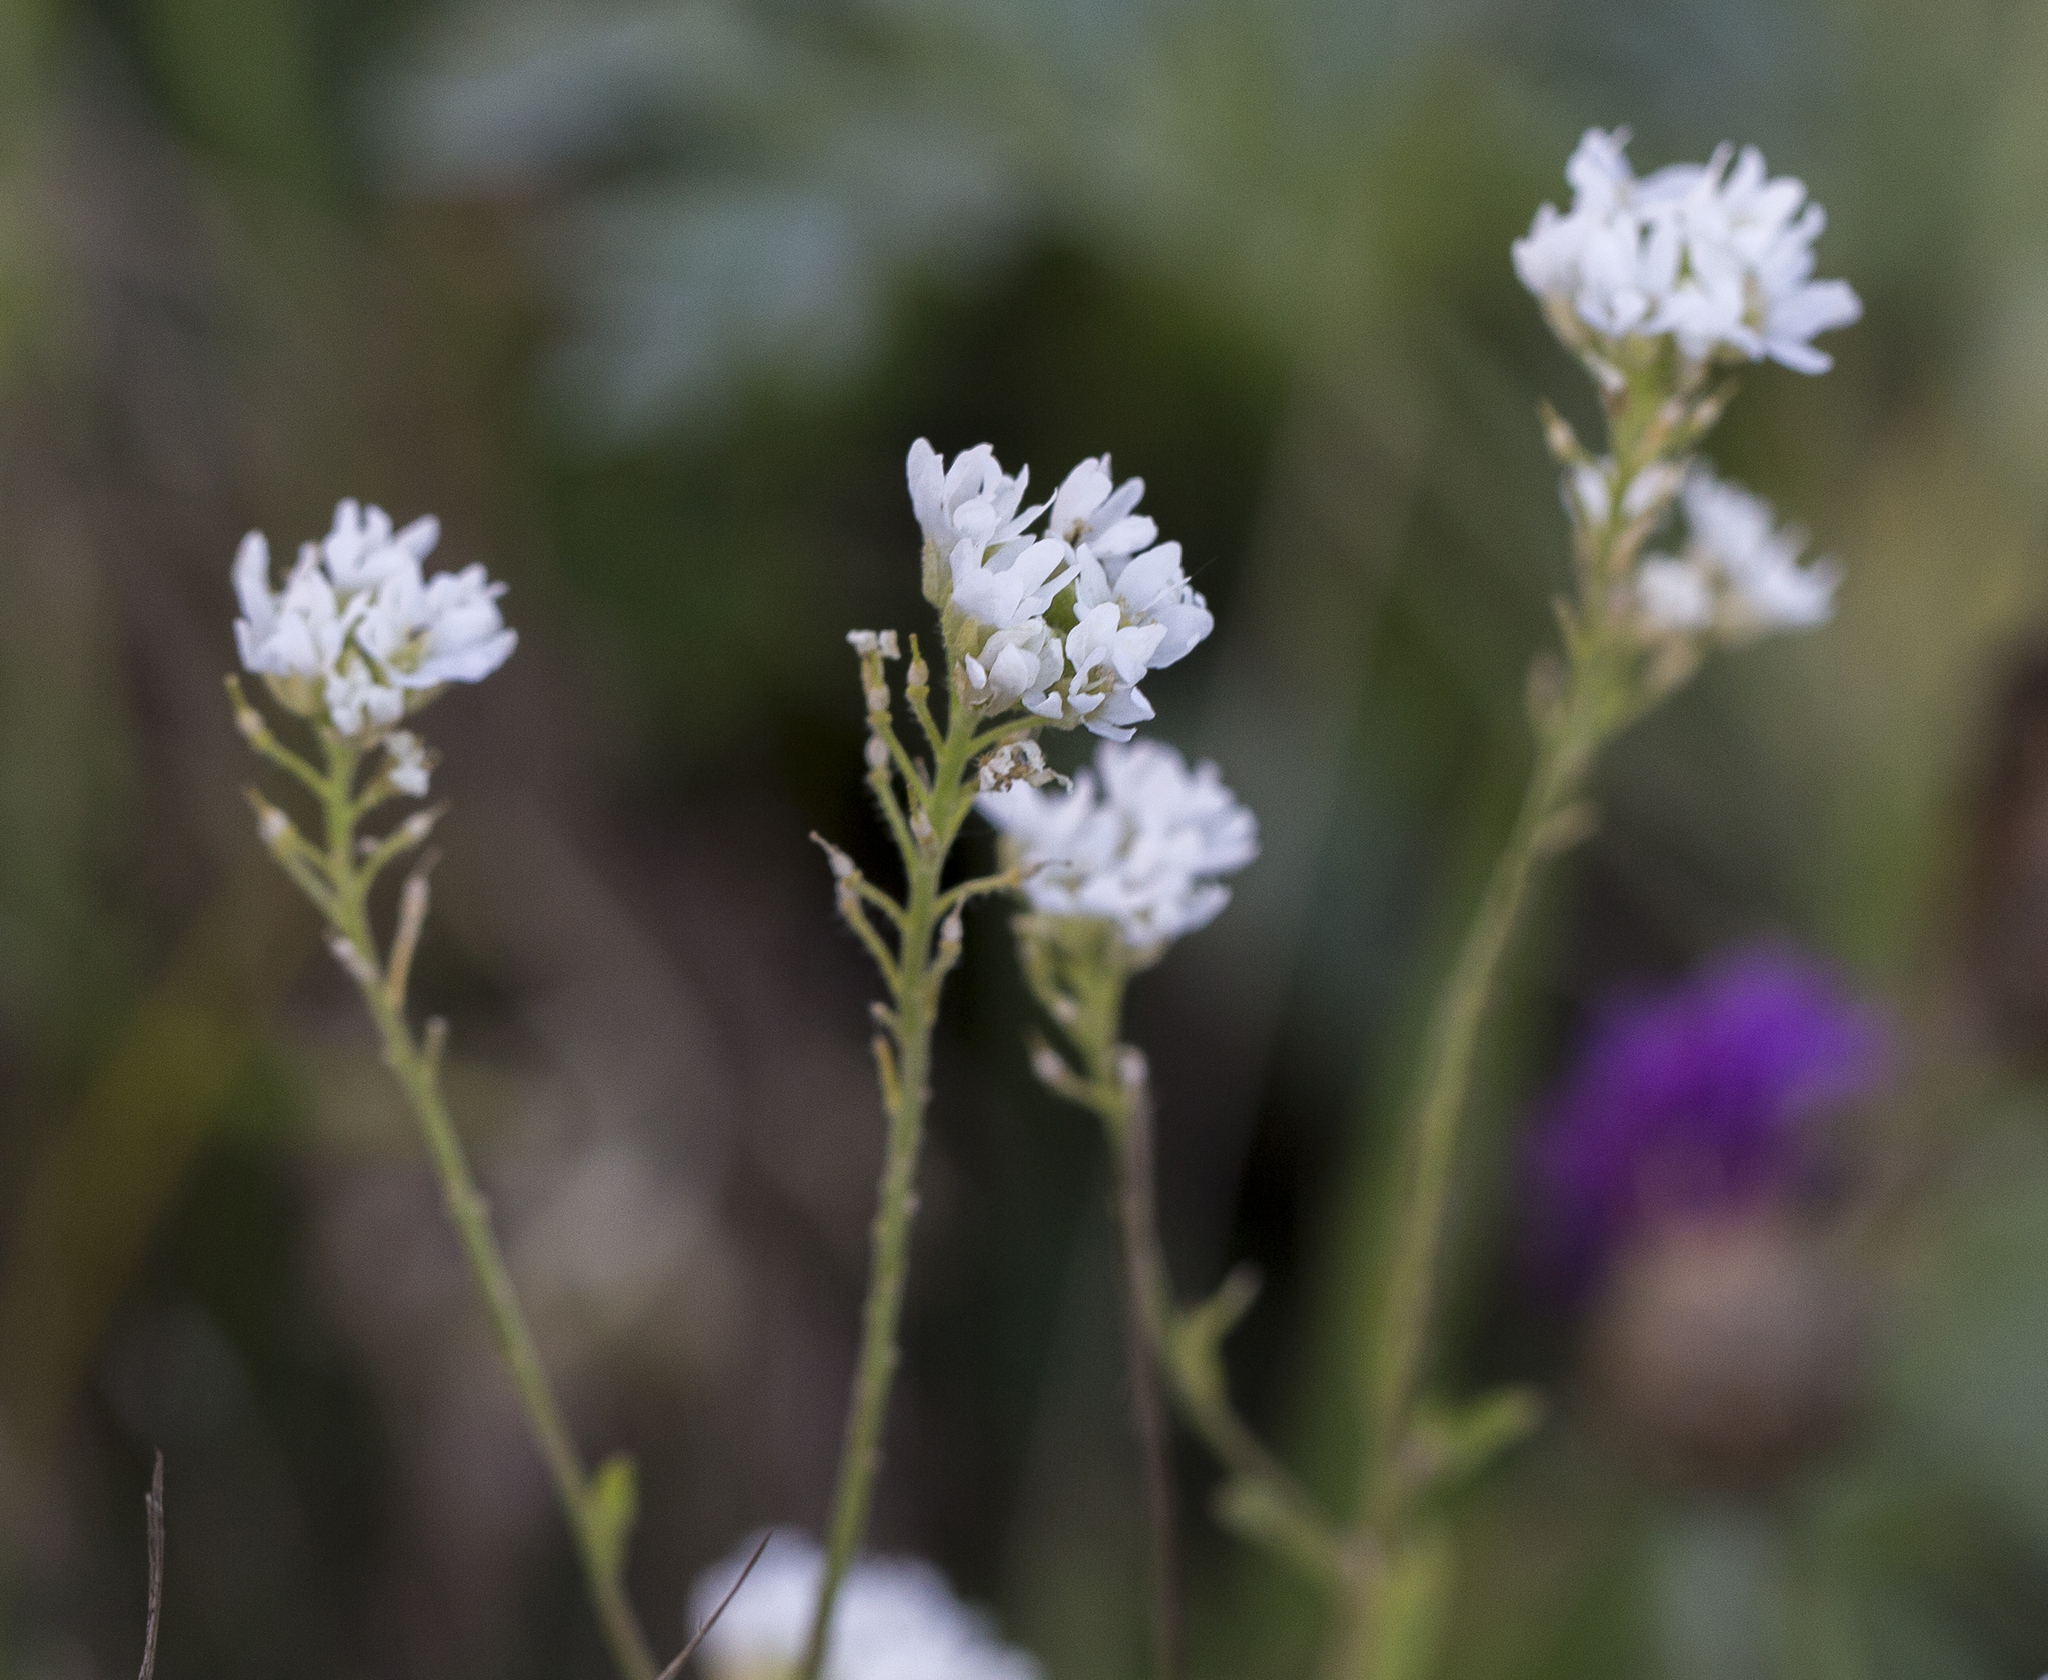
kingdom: Plantae
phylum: Tracheophyta
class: Magnoliopsida
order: Brassicales
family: Brassicaceae
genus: Berteroa
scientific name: Berteroa incana
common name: Hoary alison
